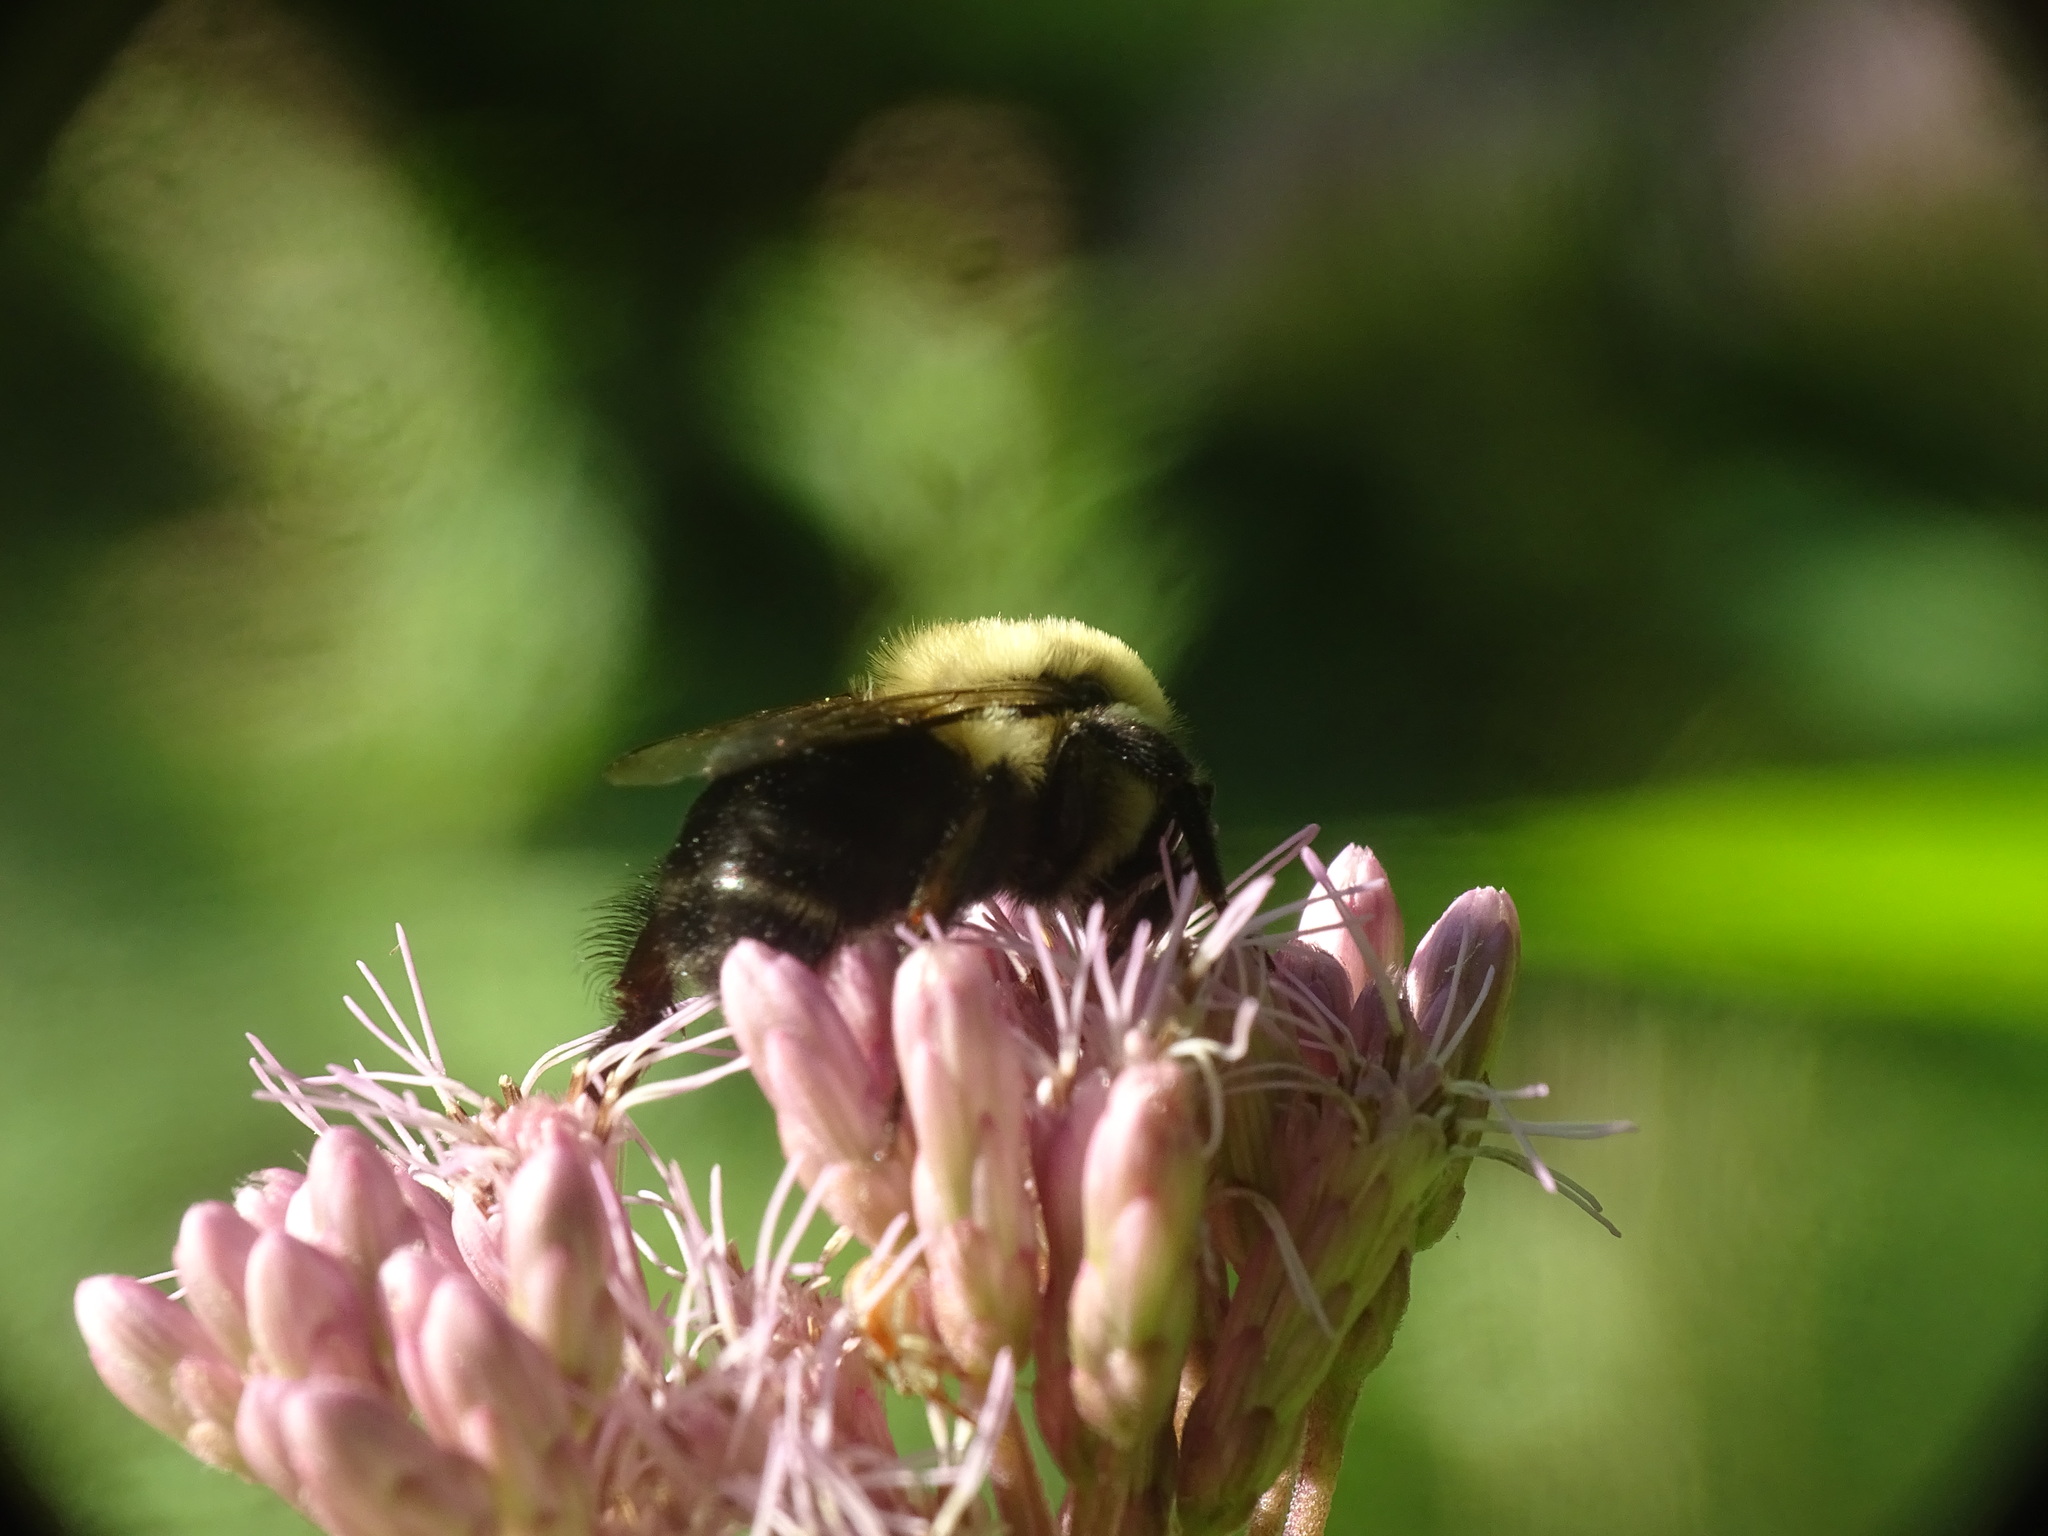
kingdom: Animalia
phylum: Arthropoda
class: Insecta
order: Hymenoptera
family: Apidae
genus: Bombus
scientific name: Bombus impatiens
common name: Common eastern bumble bee
